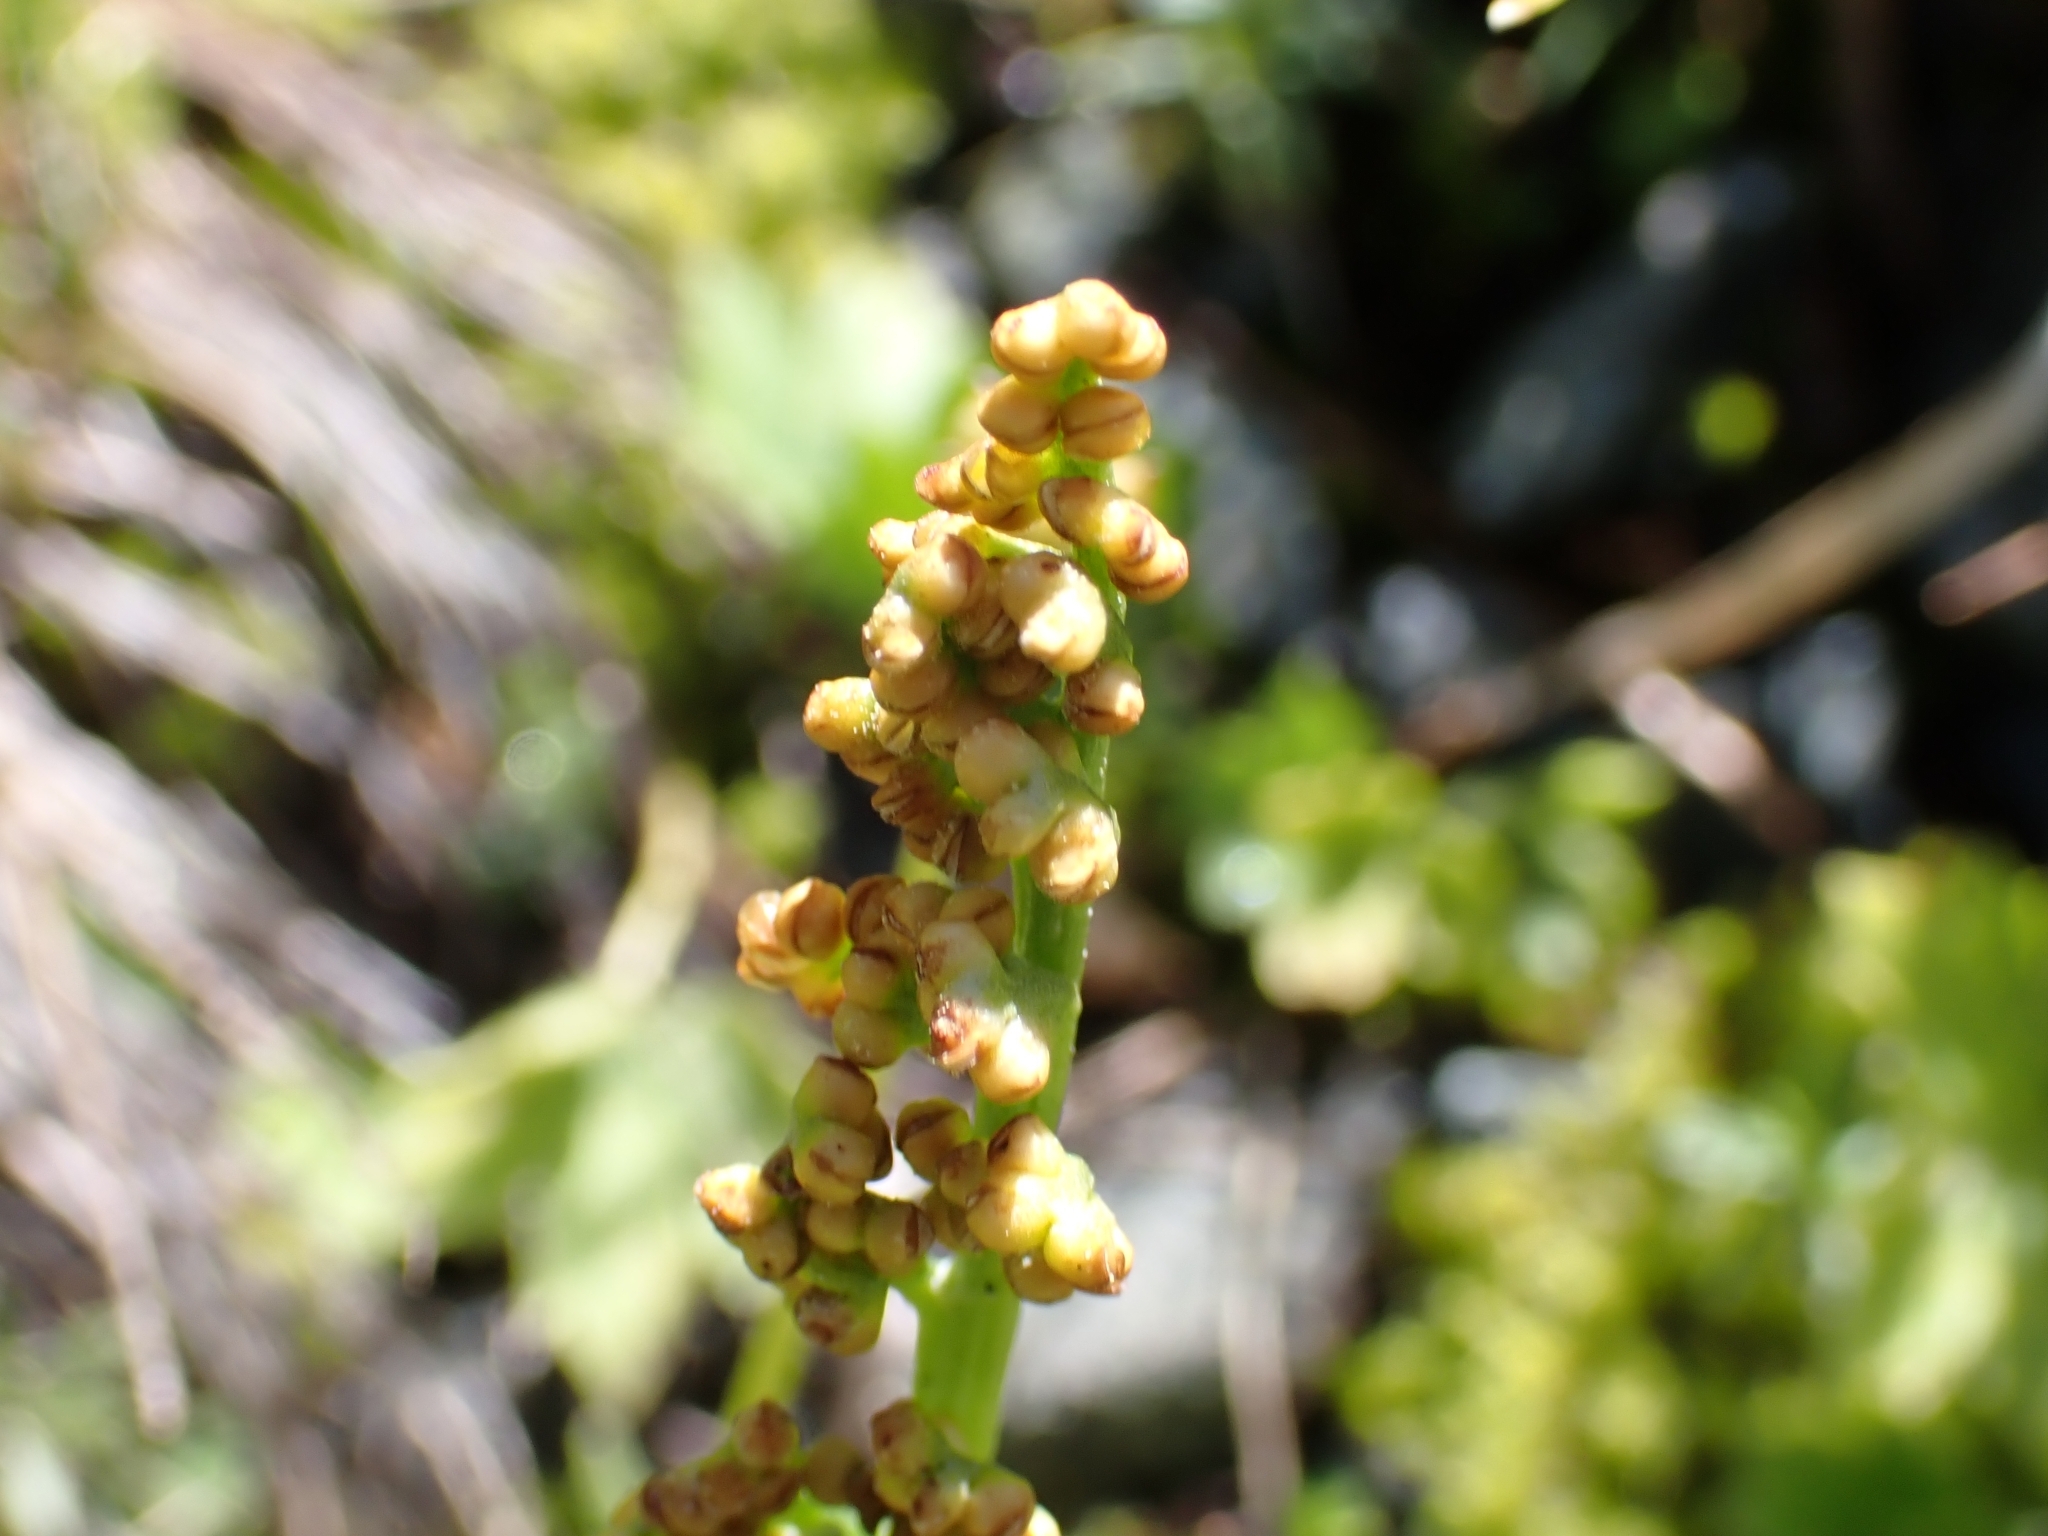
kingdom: Plantae
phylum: Tracheophyta
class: Polypodiopsida
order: Ophioglossales
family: Ophioglossaceae
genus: Botrychium
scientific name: Botrychium lunaria
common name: Moonwort
